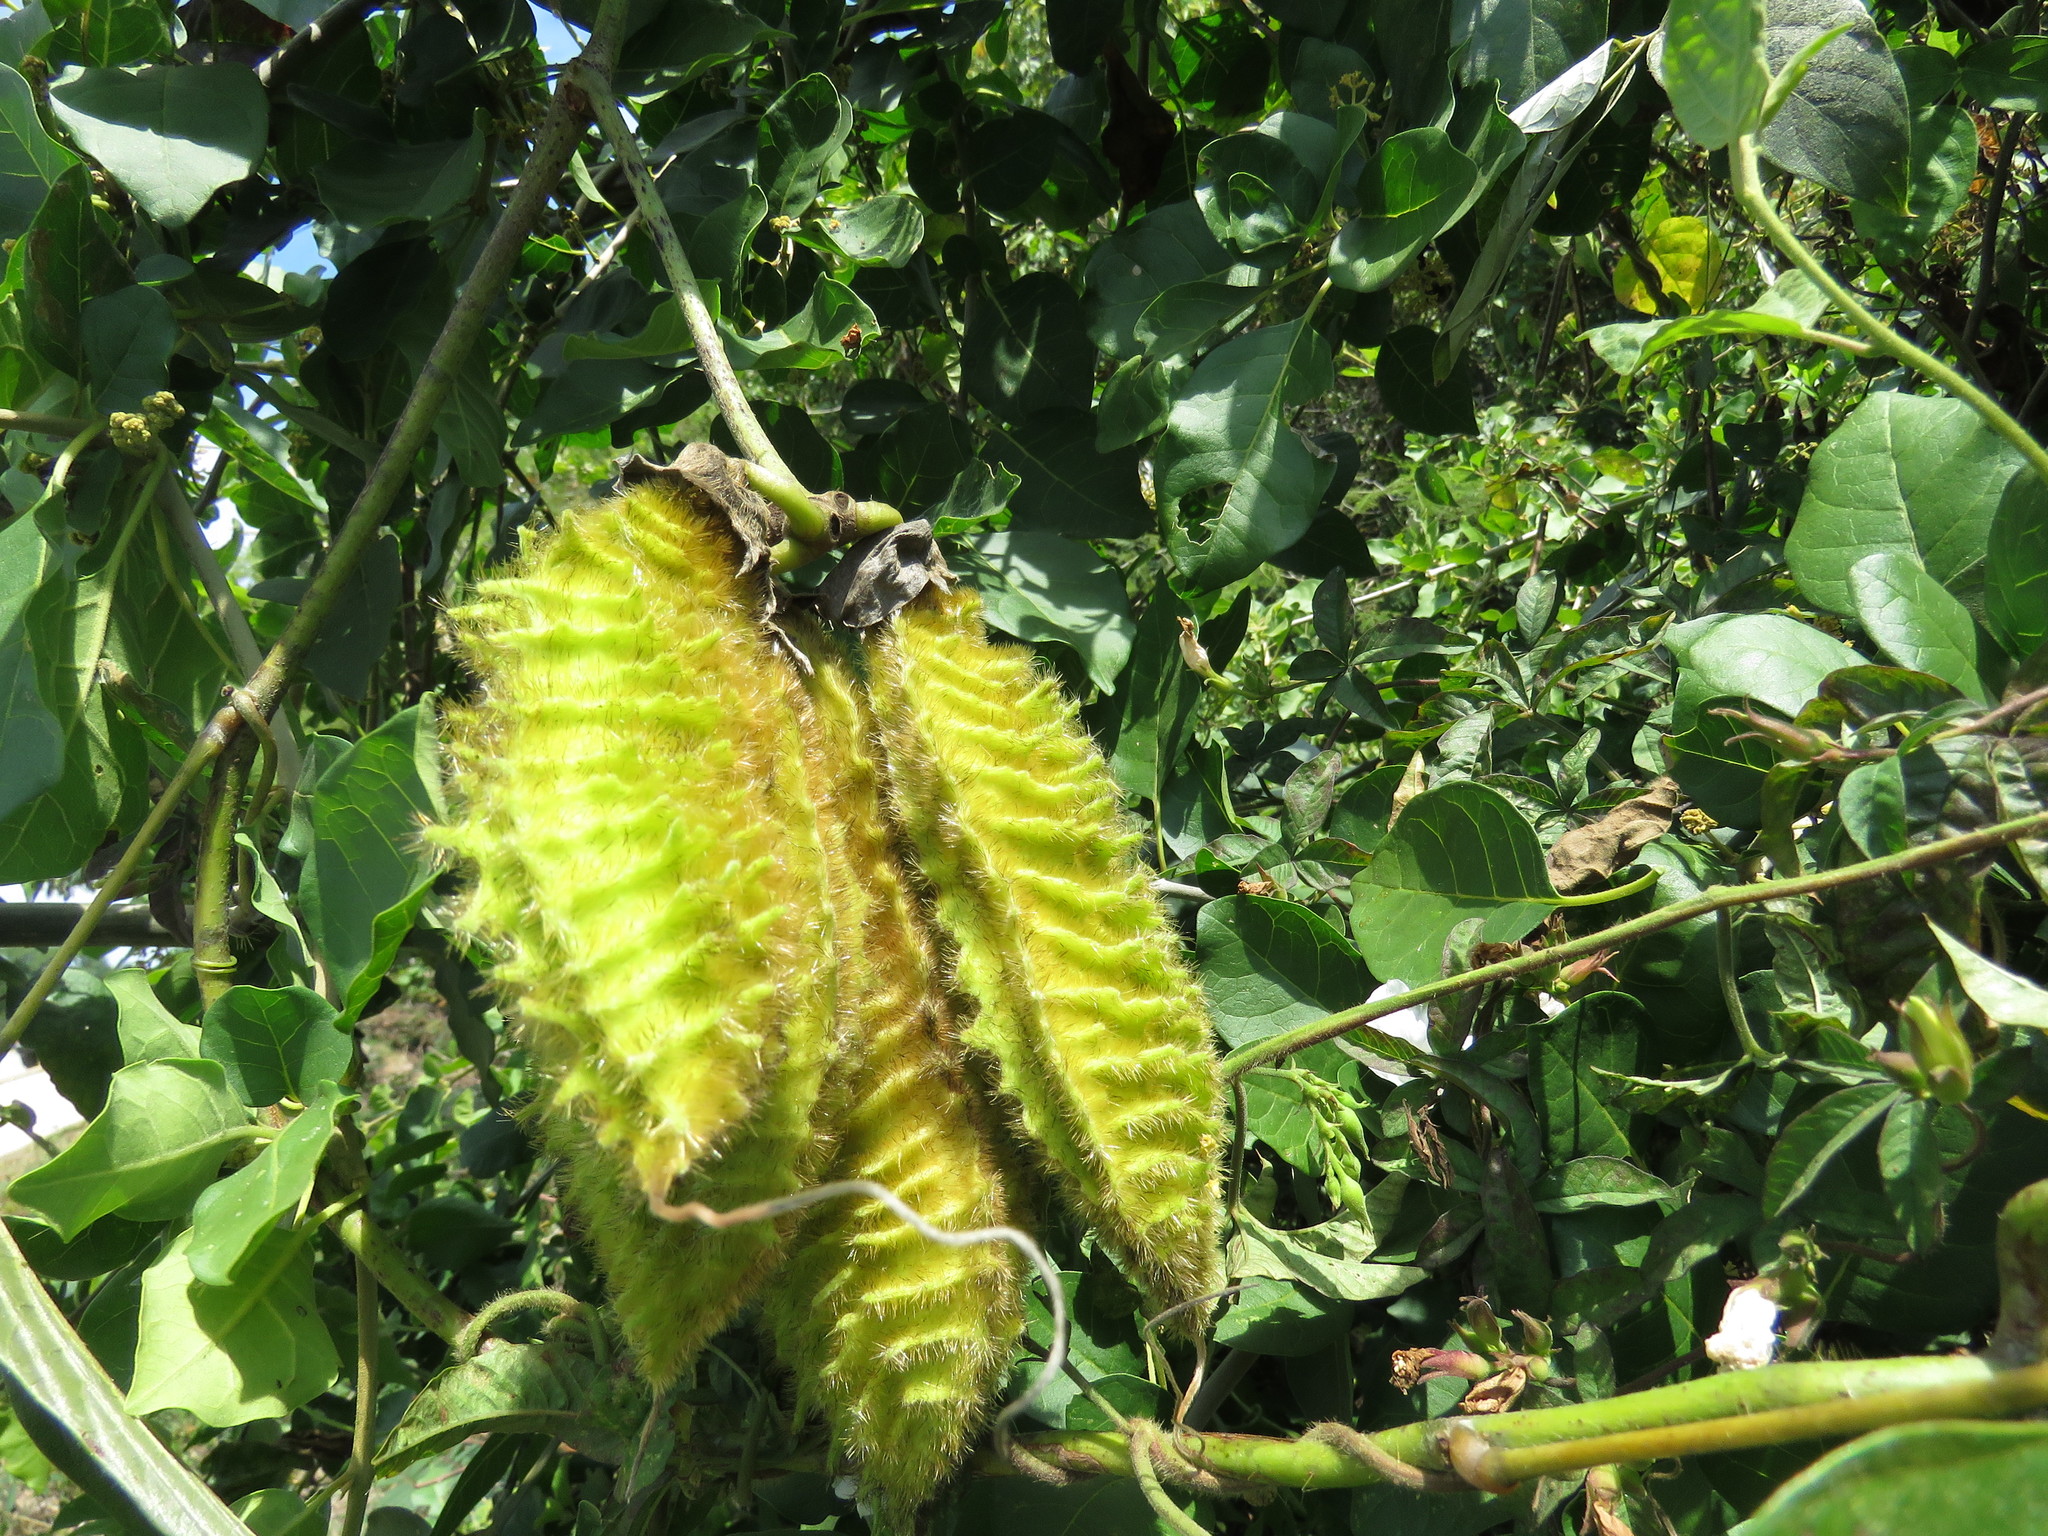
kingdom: Plantae
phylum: Tracheophyta
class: Magnoliopsida
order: Fabales
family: Fabaceae
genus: Mucuna
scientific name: Mucuna sloanei
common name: Horse-eye bean
